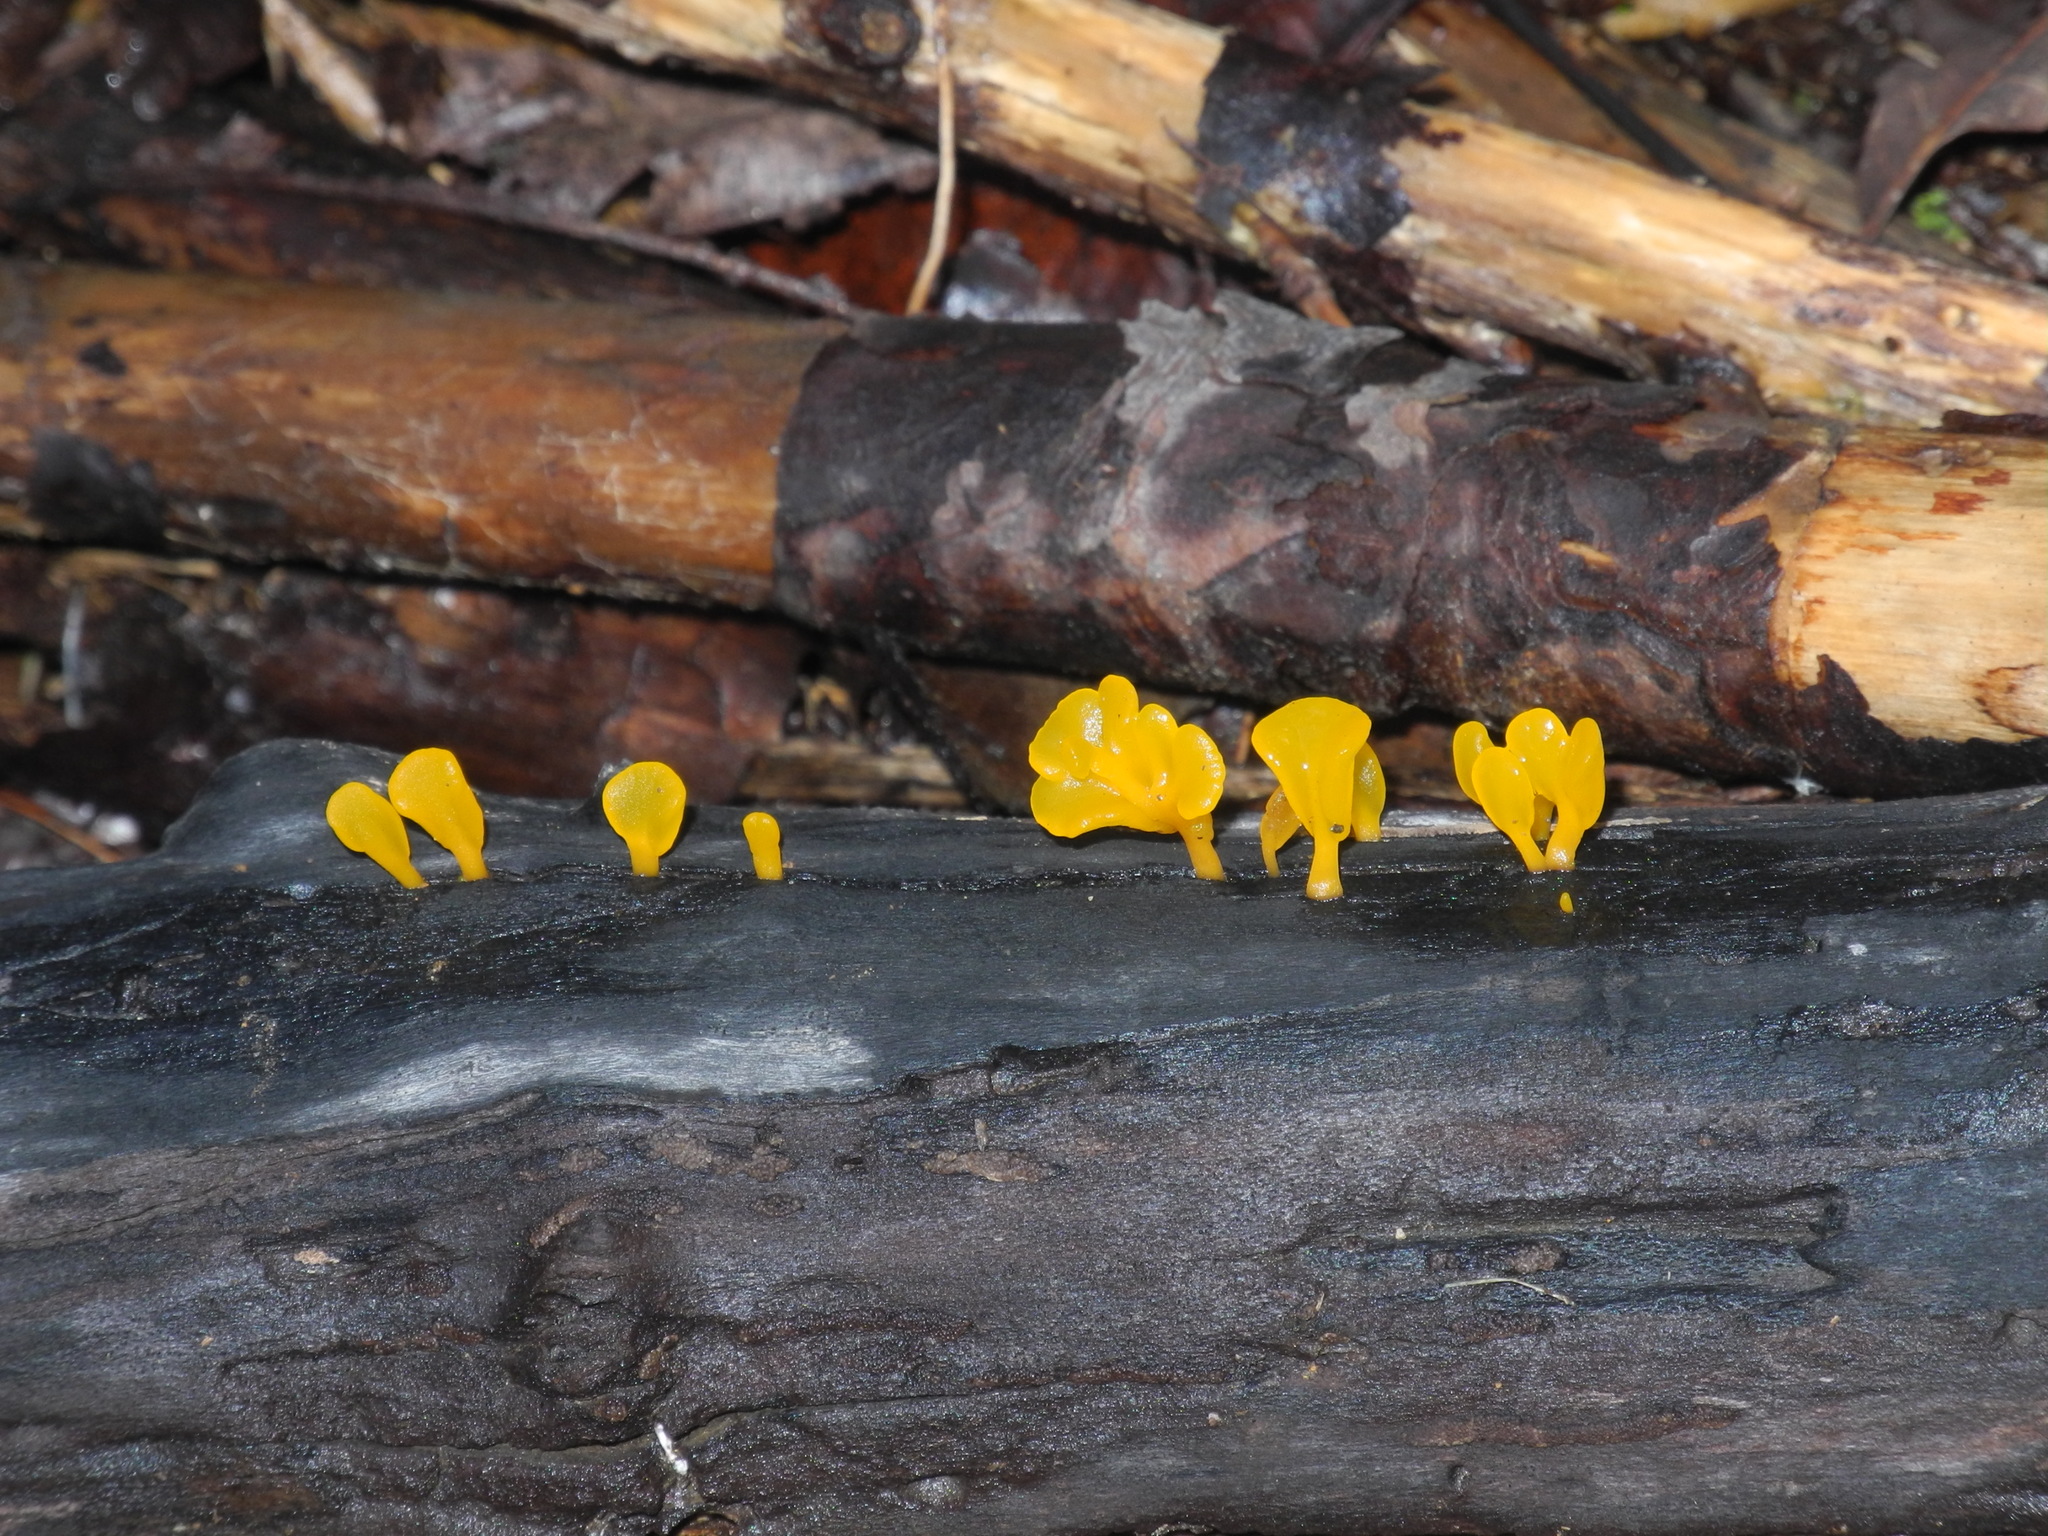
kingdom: Fungi
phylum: Basidiomycota
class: Dacrymycetes
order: Dacrymycetales
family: Dacrymycetaceae
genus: Dacrymyces
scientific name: Dacrymyces spathularius
